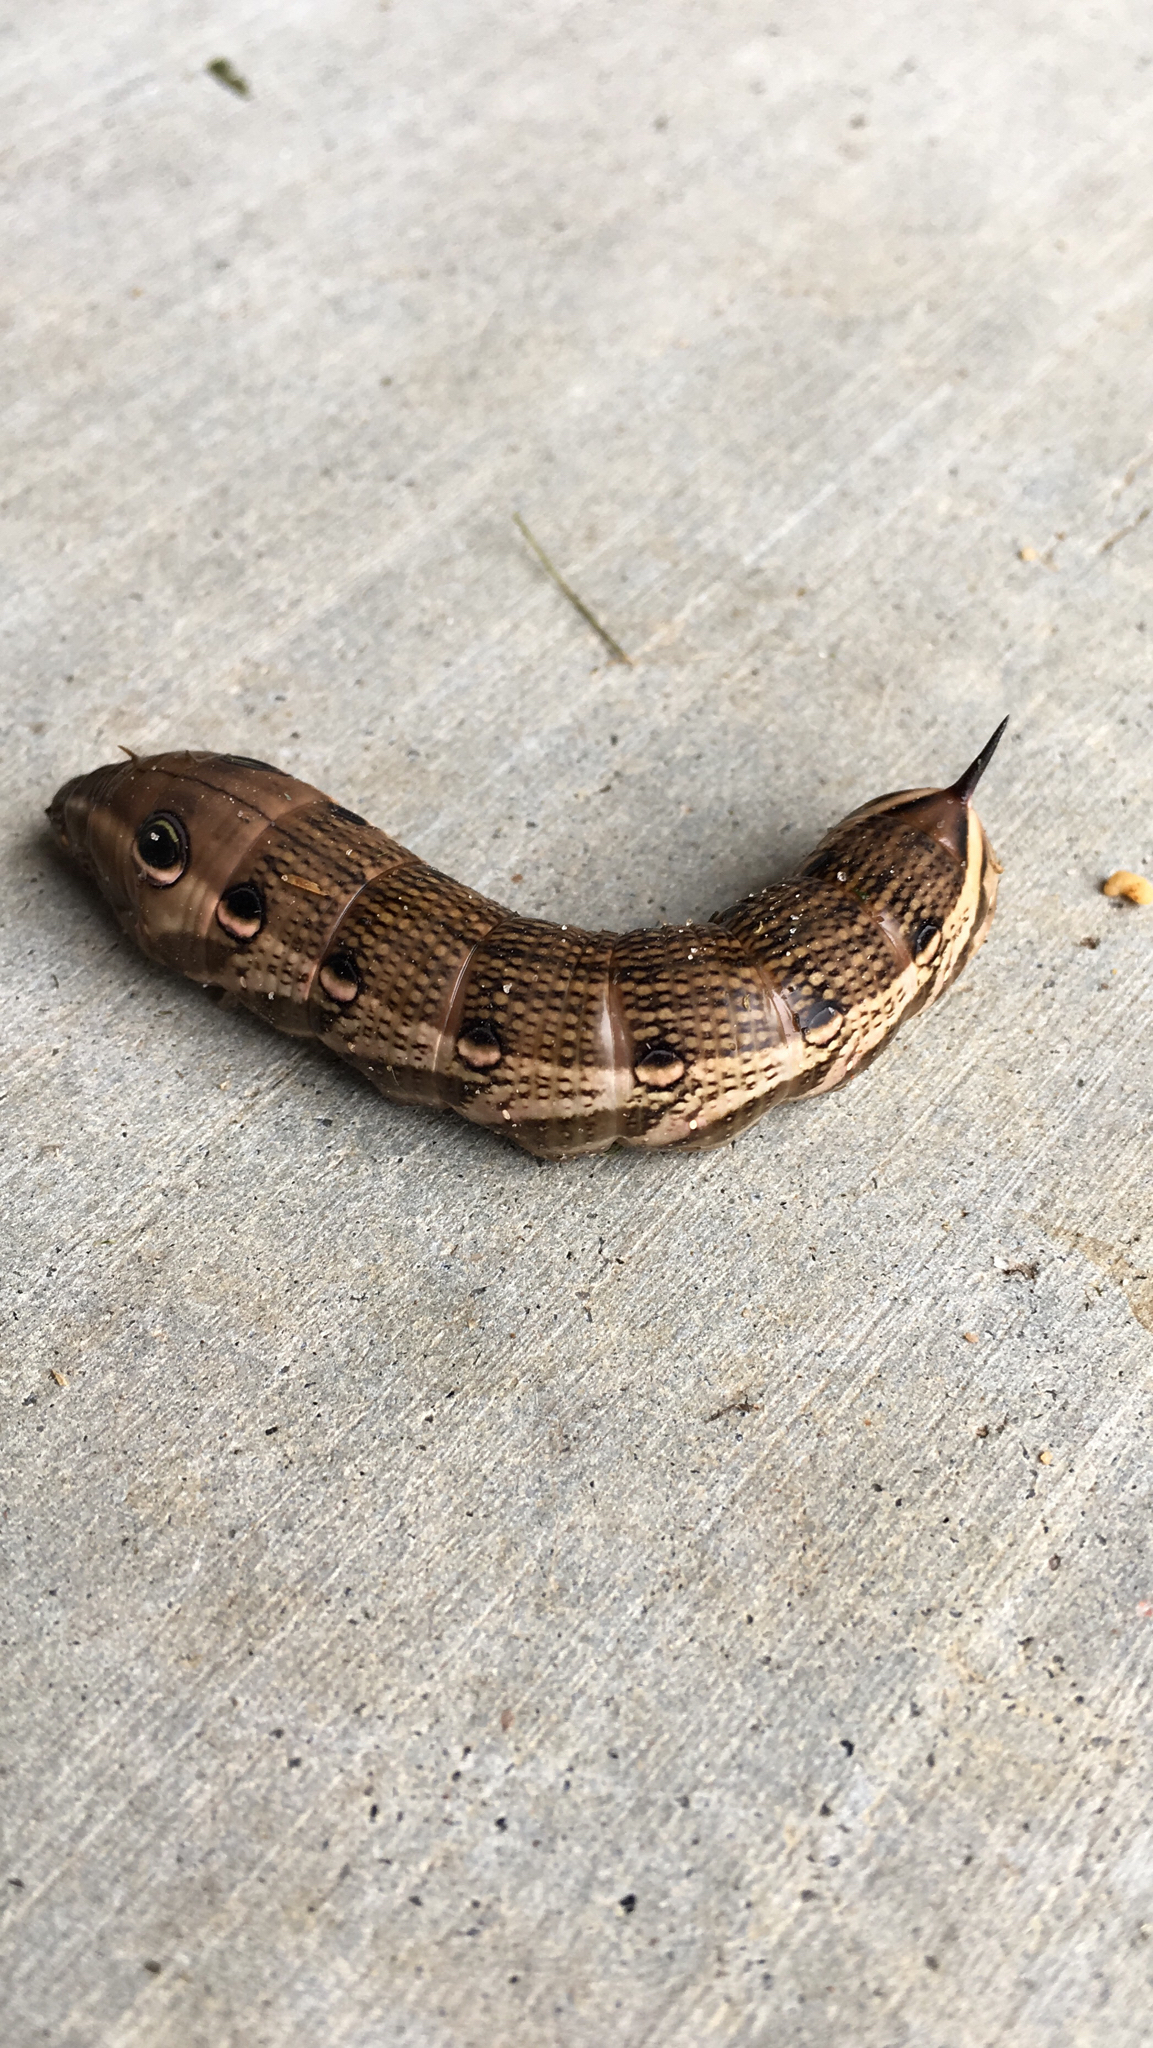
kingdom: Animalia
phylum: Arthropoda
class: Insecta
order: Lepidoptera
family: Sphingidae
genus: Xylophanes
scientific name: Xylophanes tersa
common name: Tersa sphinx
